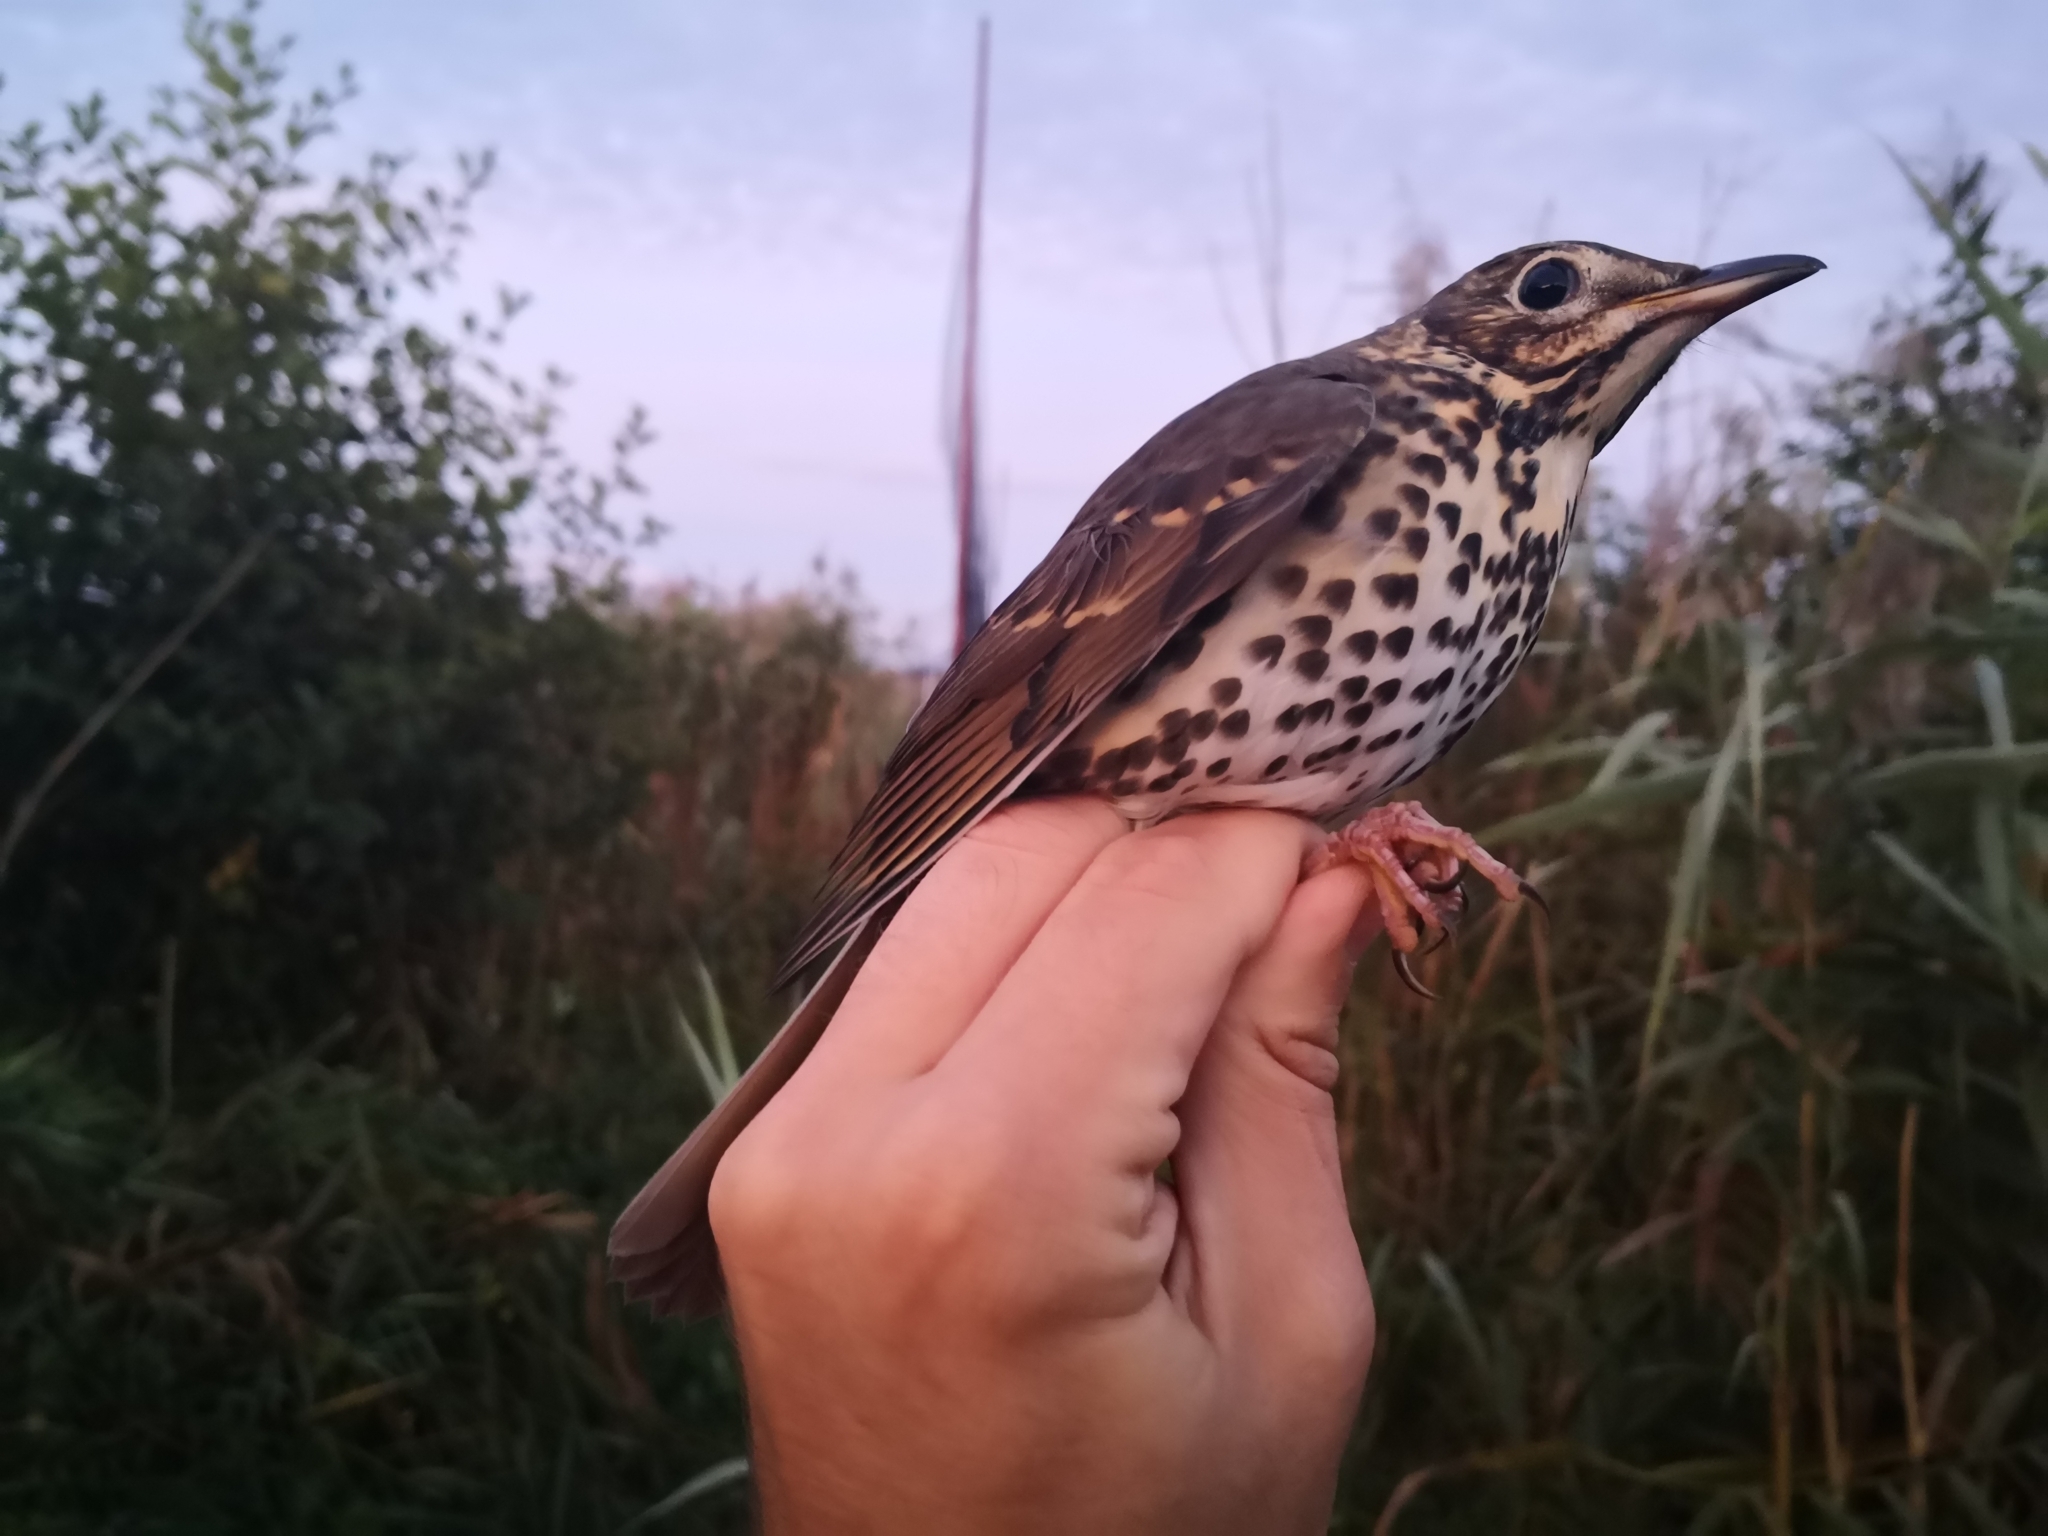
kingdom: Animalia
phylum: Chordata
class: Aves
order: Passeriformes
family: Turdidae
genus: Turdus
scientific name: Turdus philomelos
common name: Song thrush
